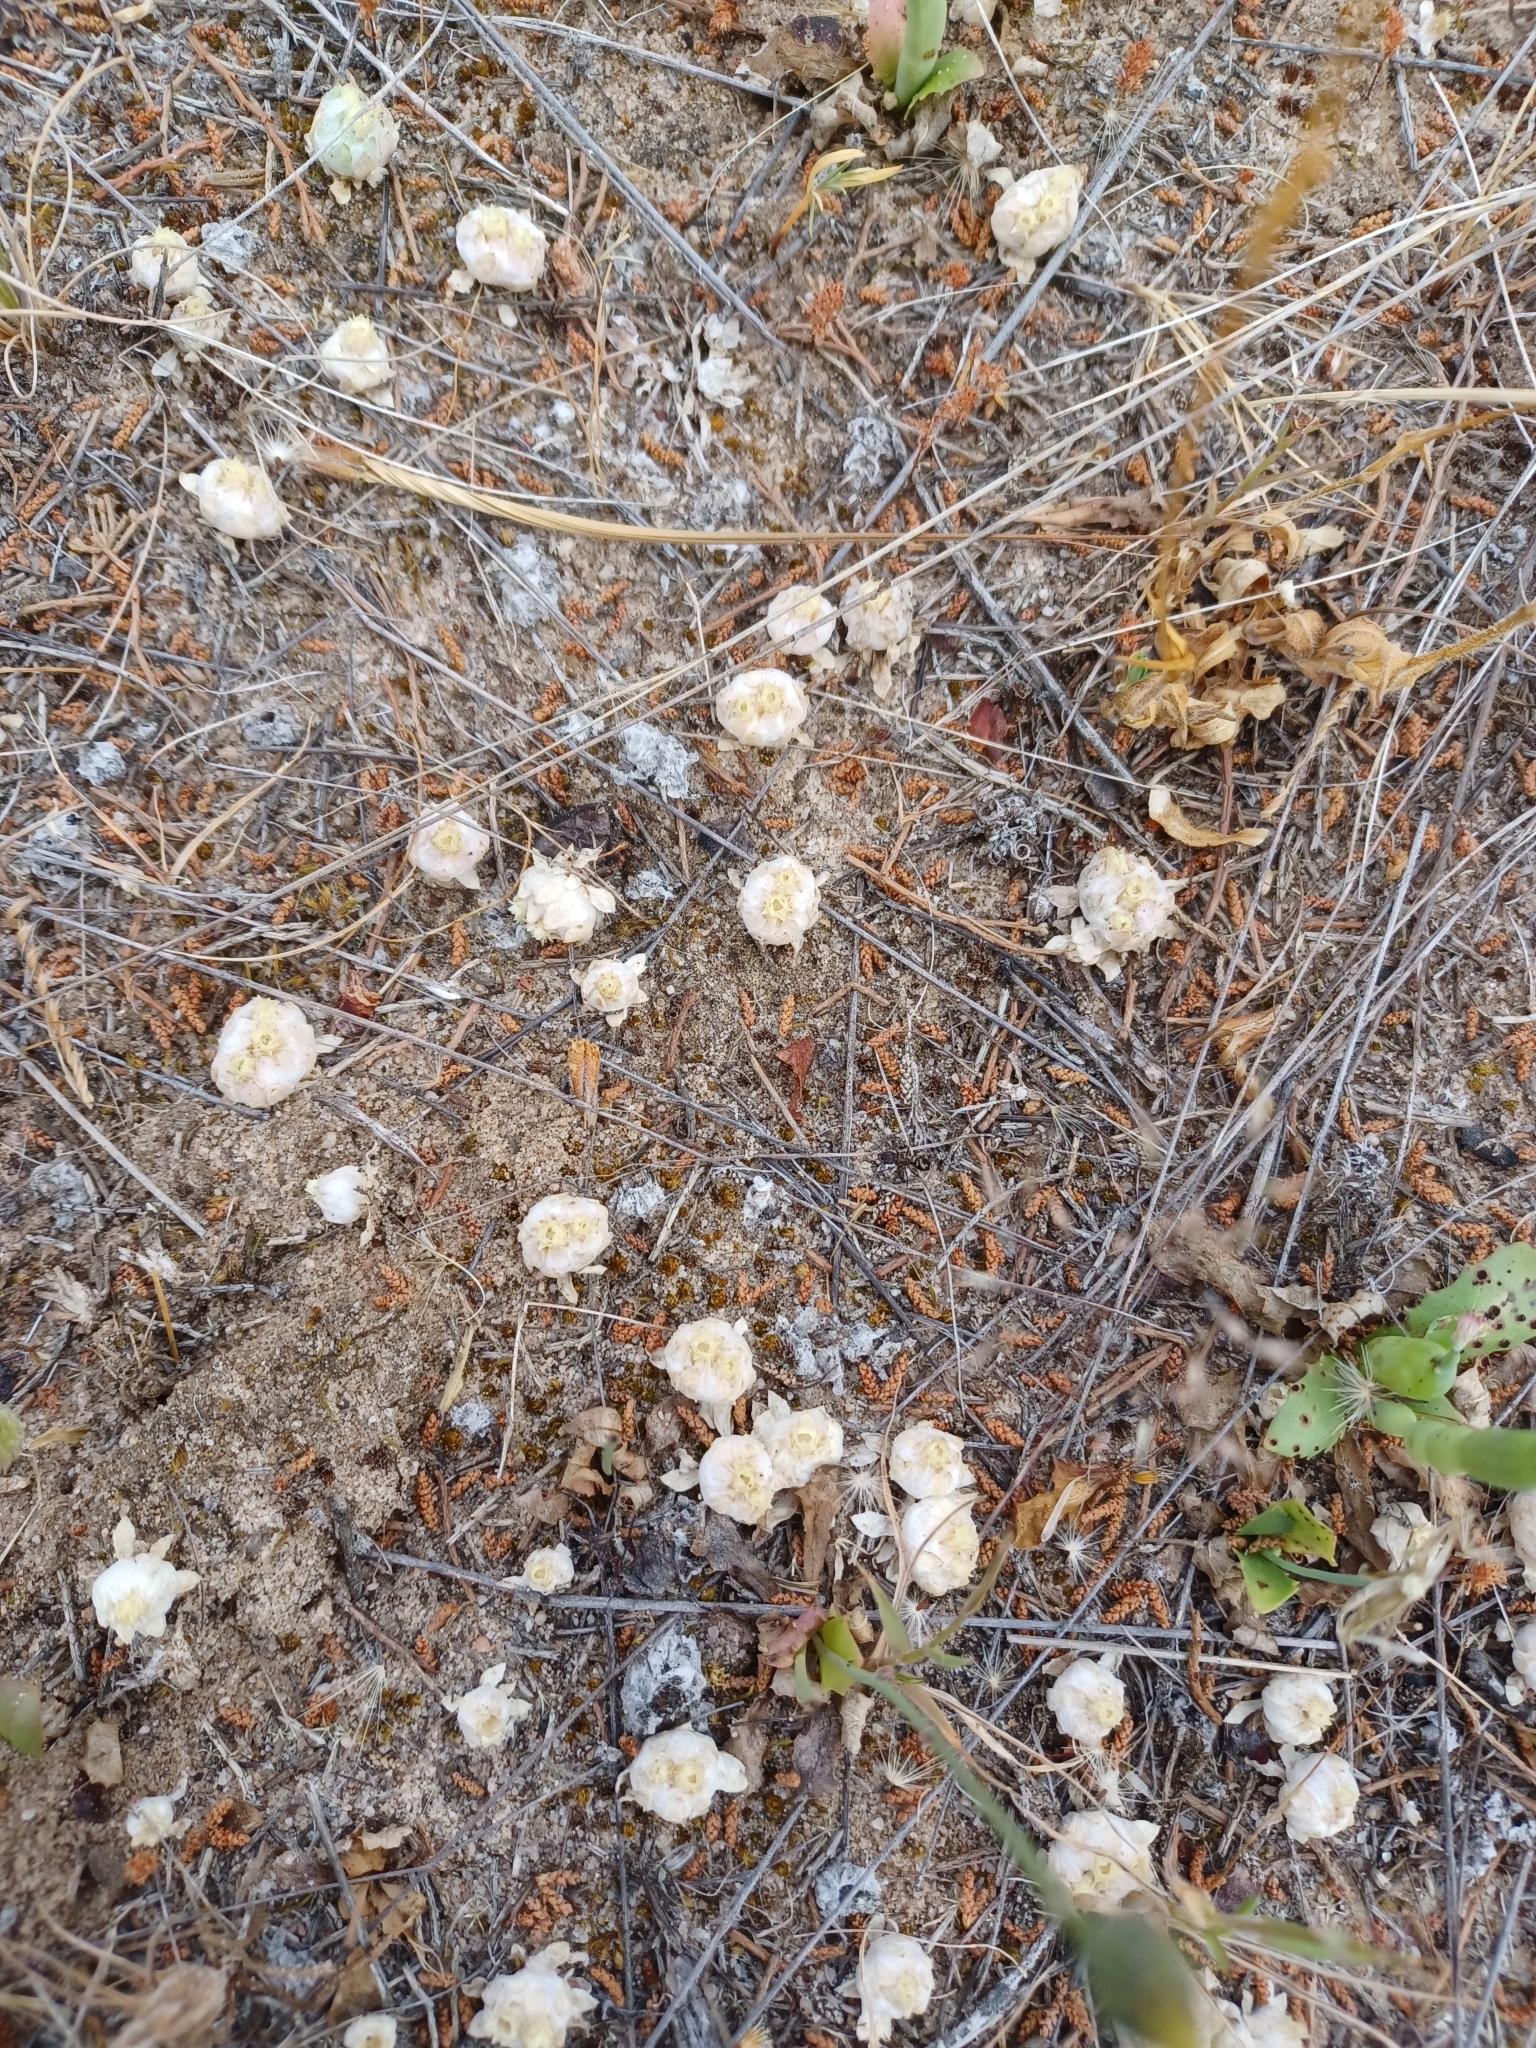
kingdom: Plantae
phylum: Tracheophyta
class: Magnoliopsida
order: Asterales
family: Asteraceae
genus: Actinobole
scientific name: Actinobole uliginosum
